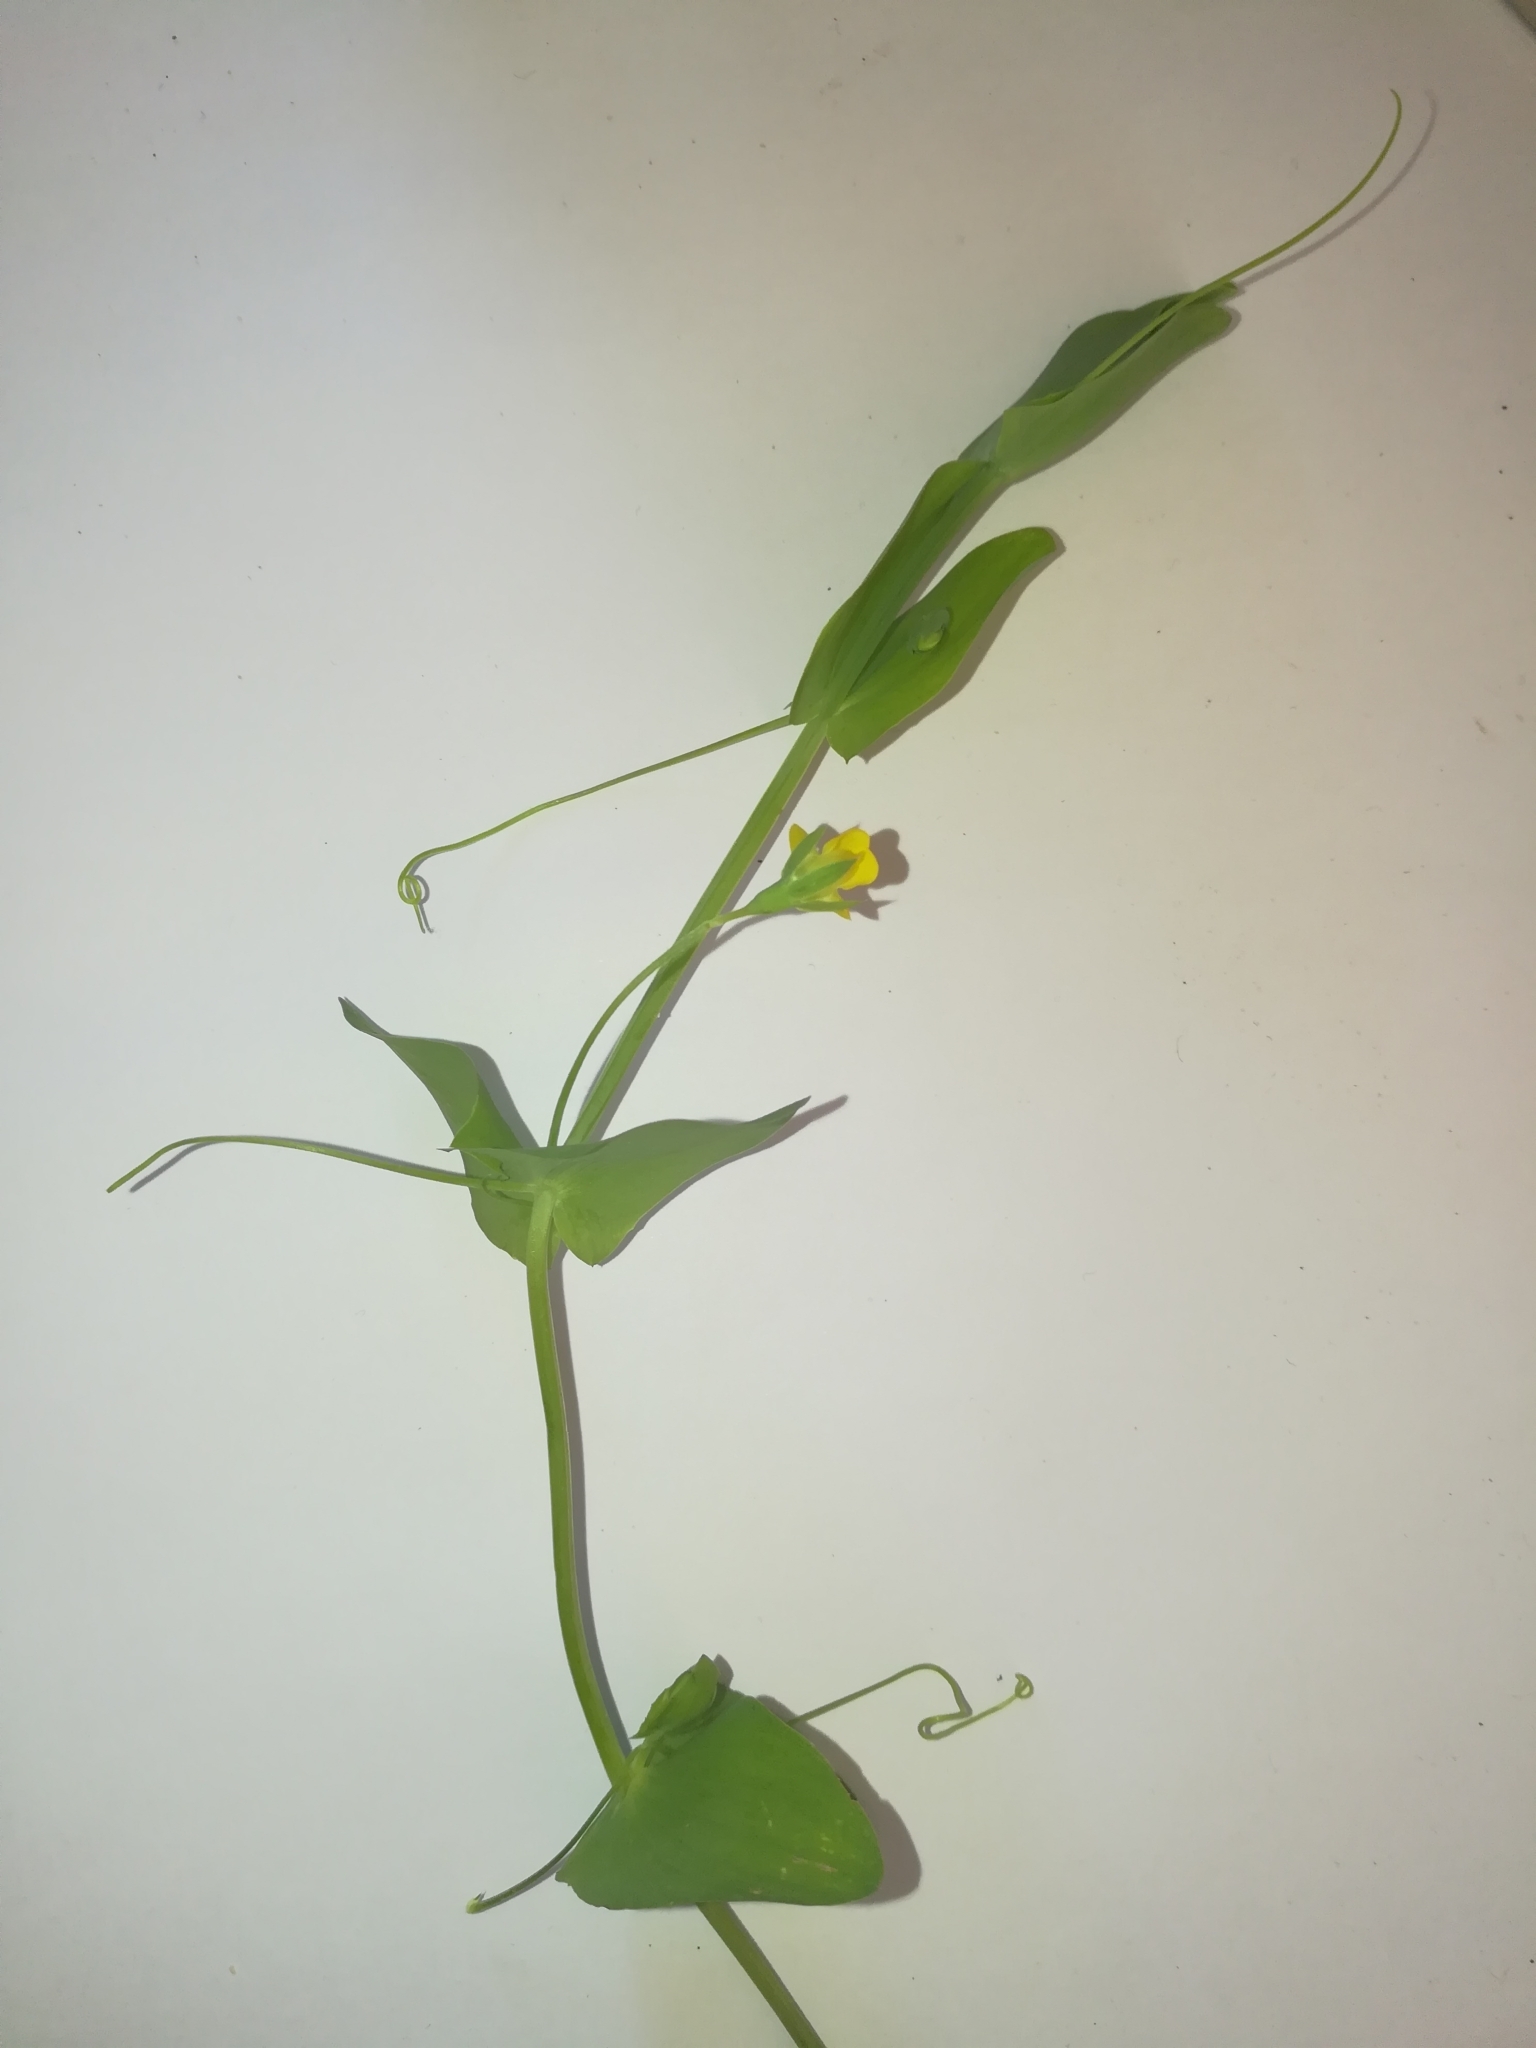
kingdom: Plantae
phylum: Tracheophyta
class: Magnoliopsida
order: Fabales
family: Fabaceae
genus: Lathyrus
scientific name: Lathyrus aphaca
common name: Yellow vetchling
